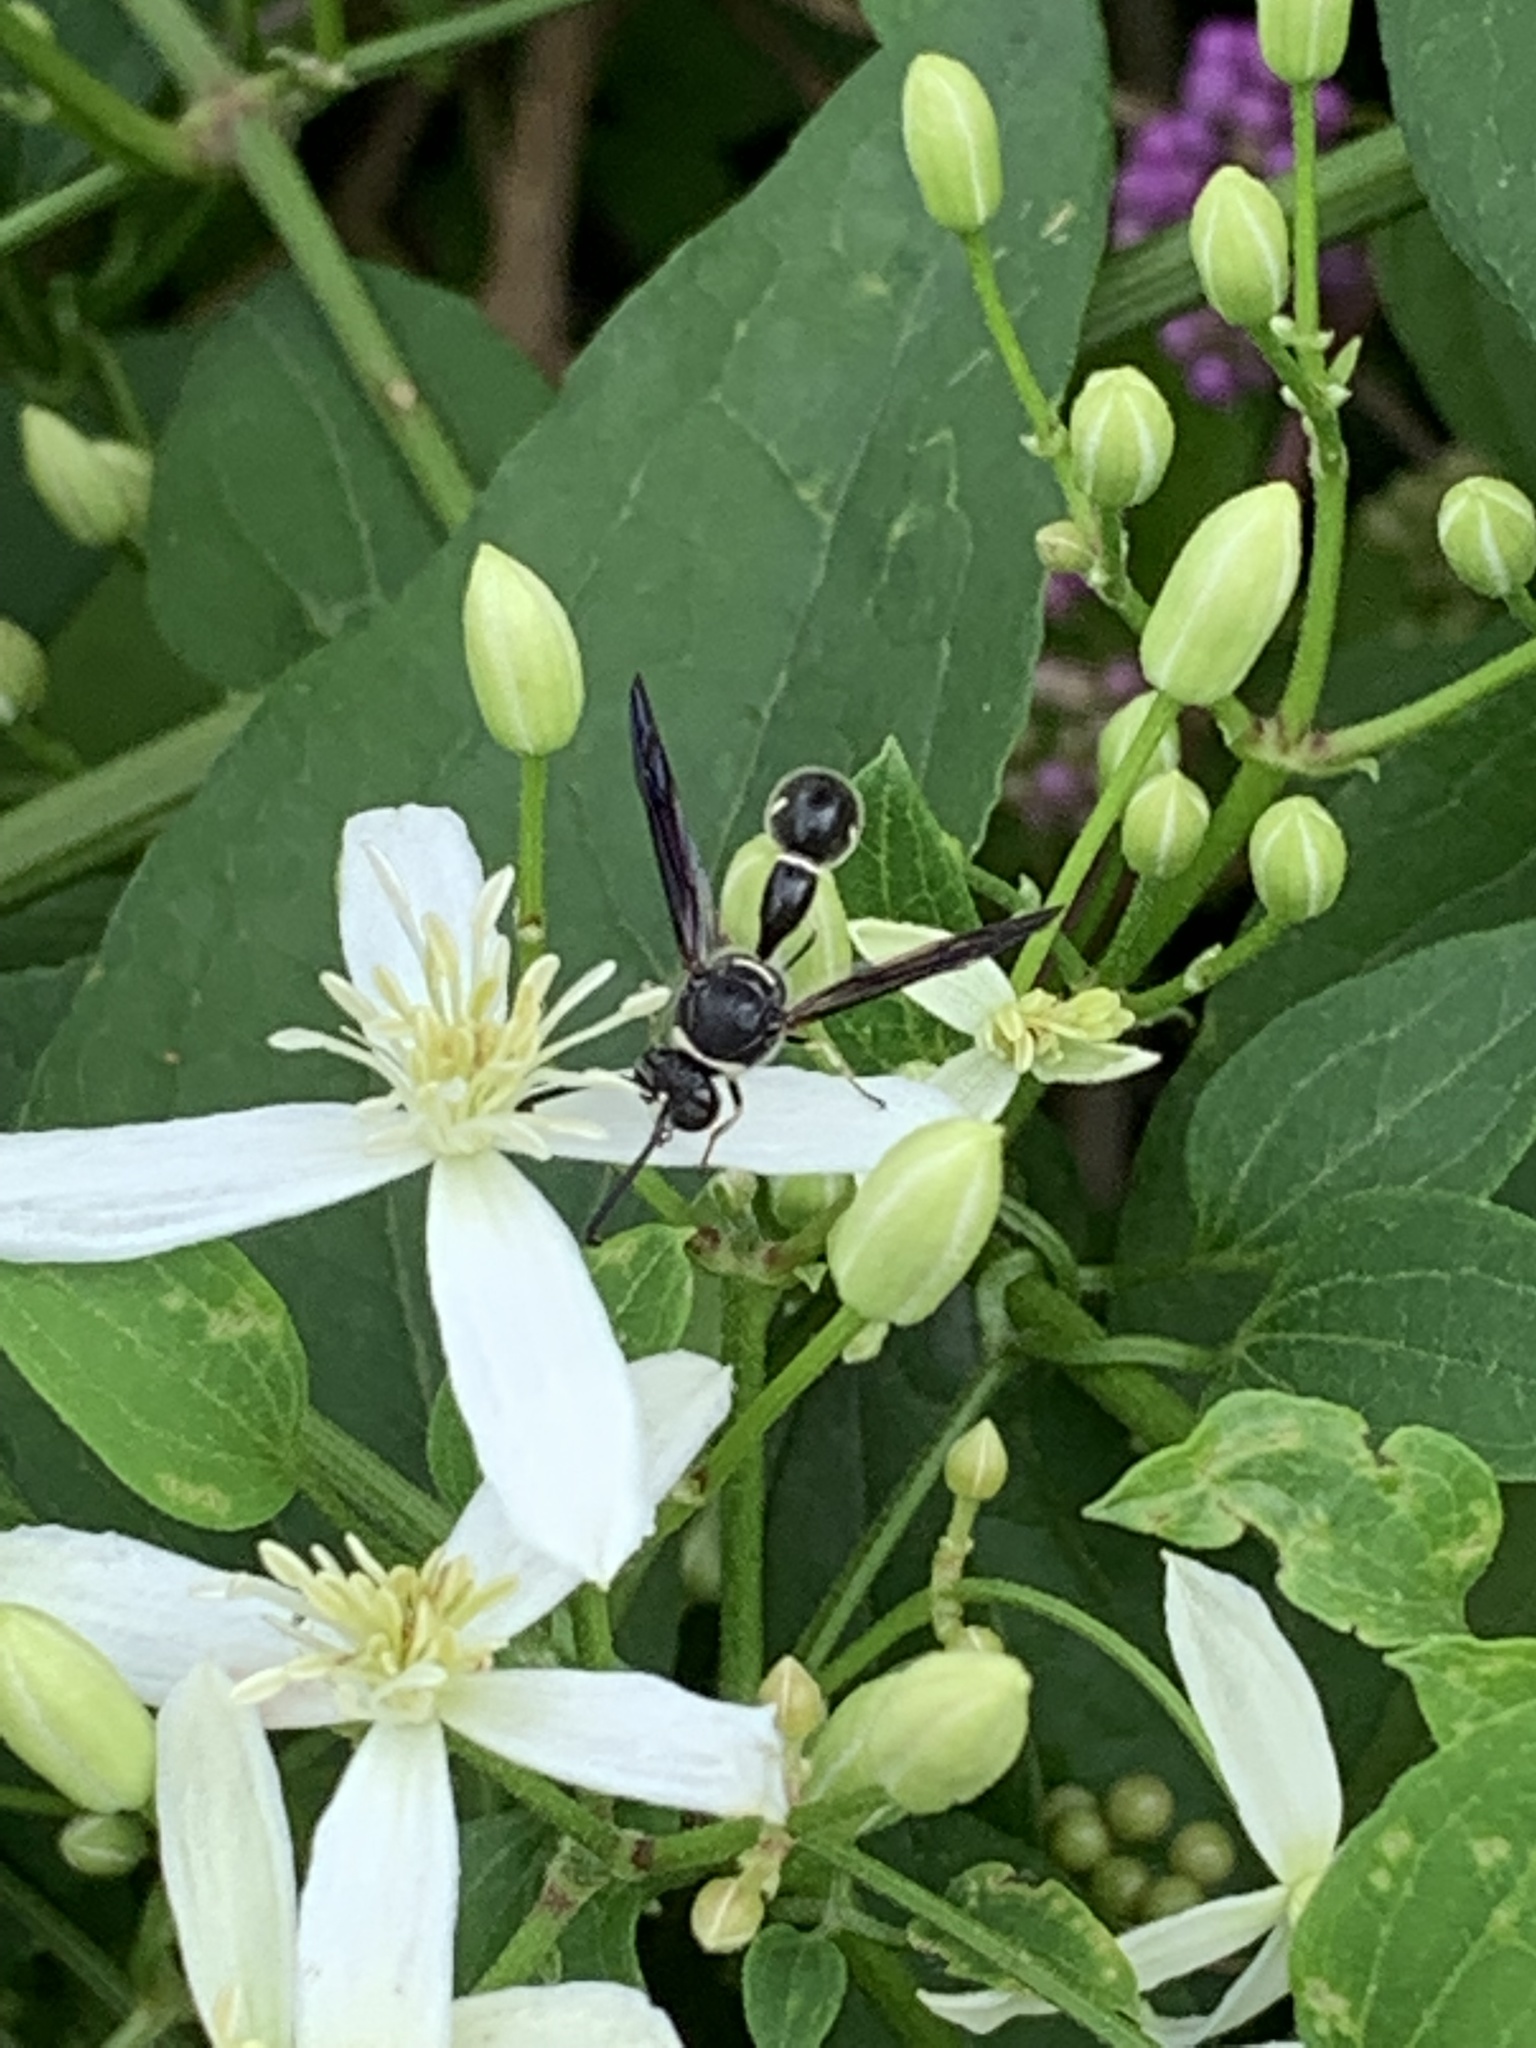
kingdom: Animalia
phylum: Arthropoda
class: Insecta
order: Hymenoptera
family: Vespidae
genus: Eumenes
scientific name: Eumenes fraternus
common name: Fraternal potter wasp
